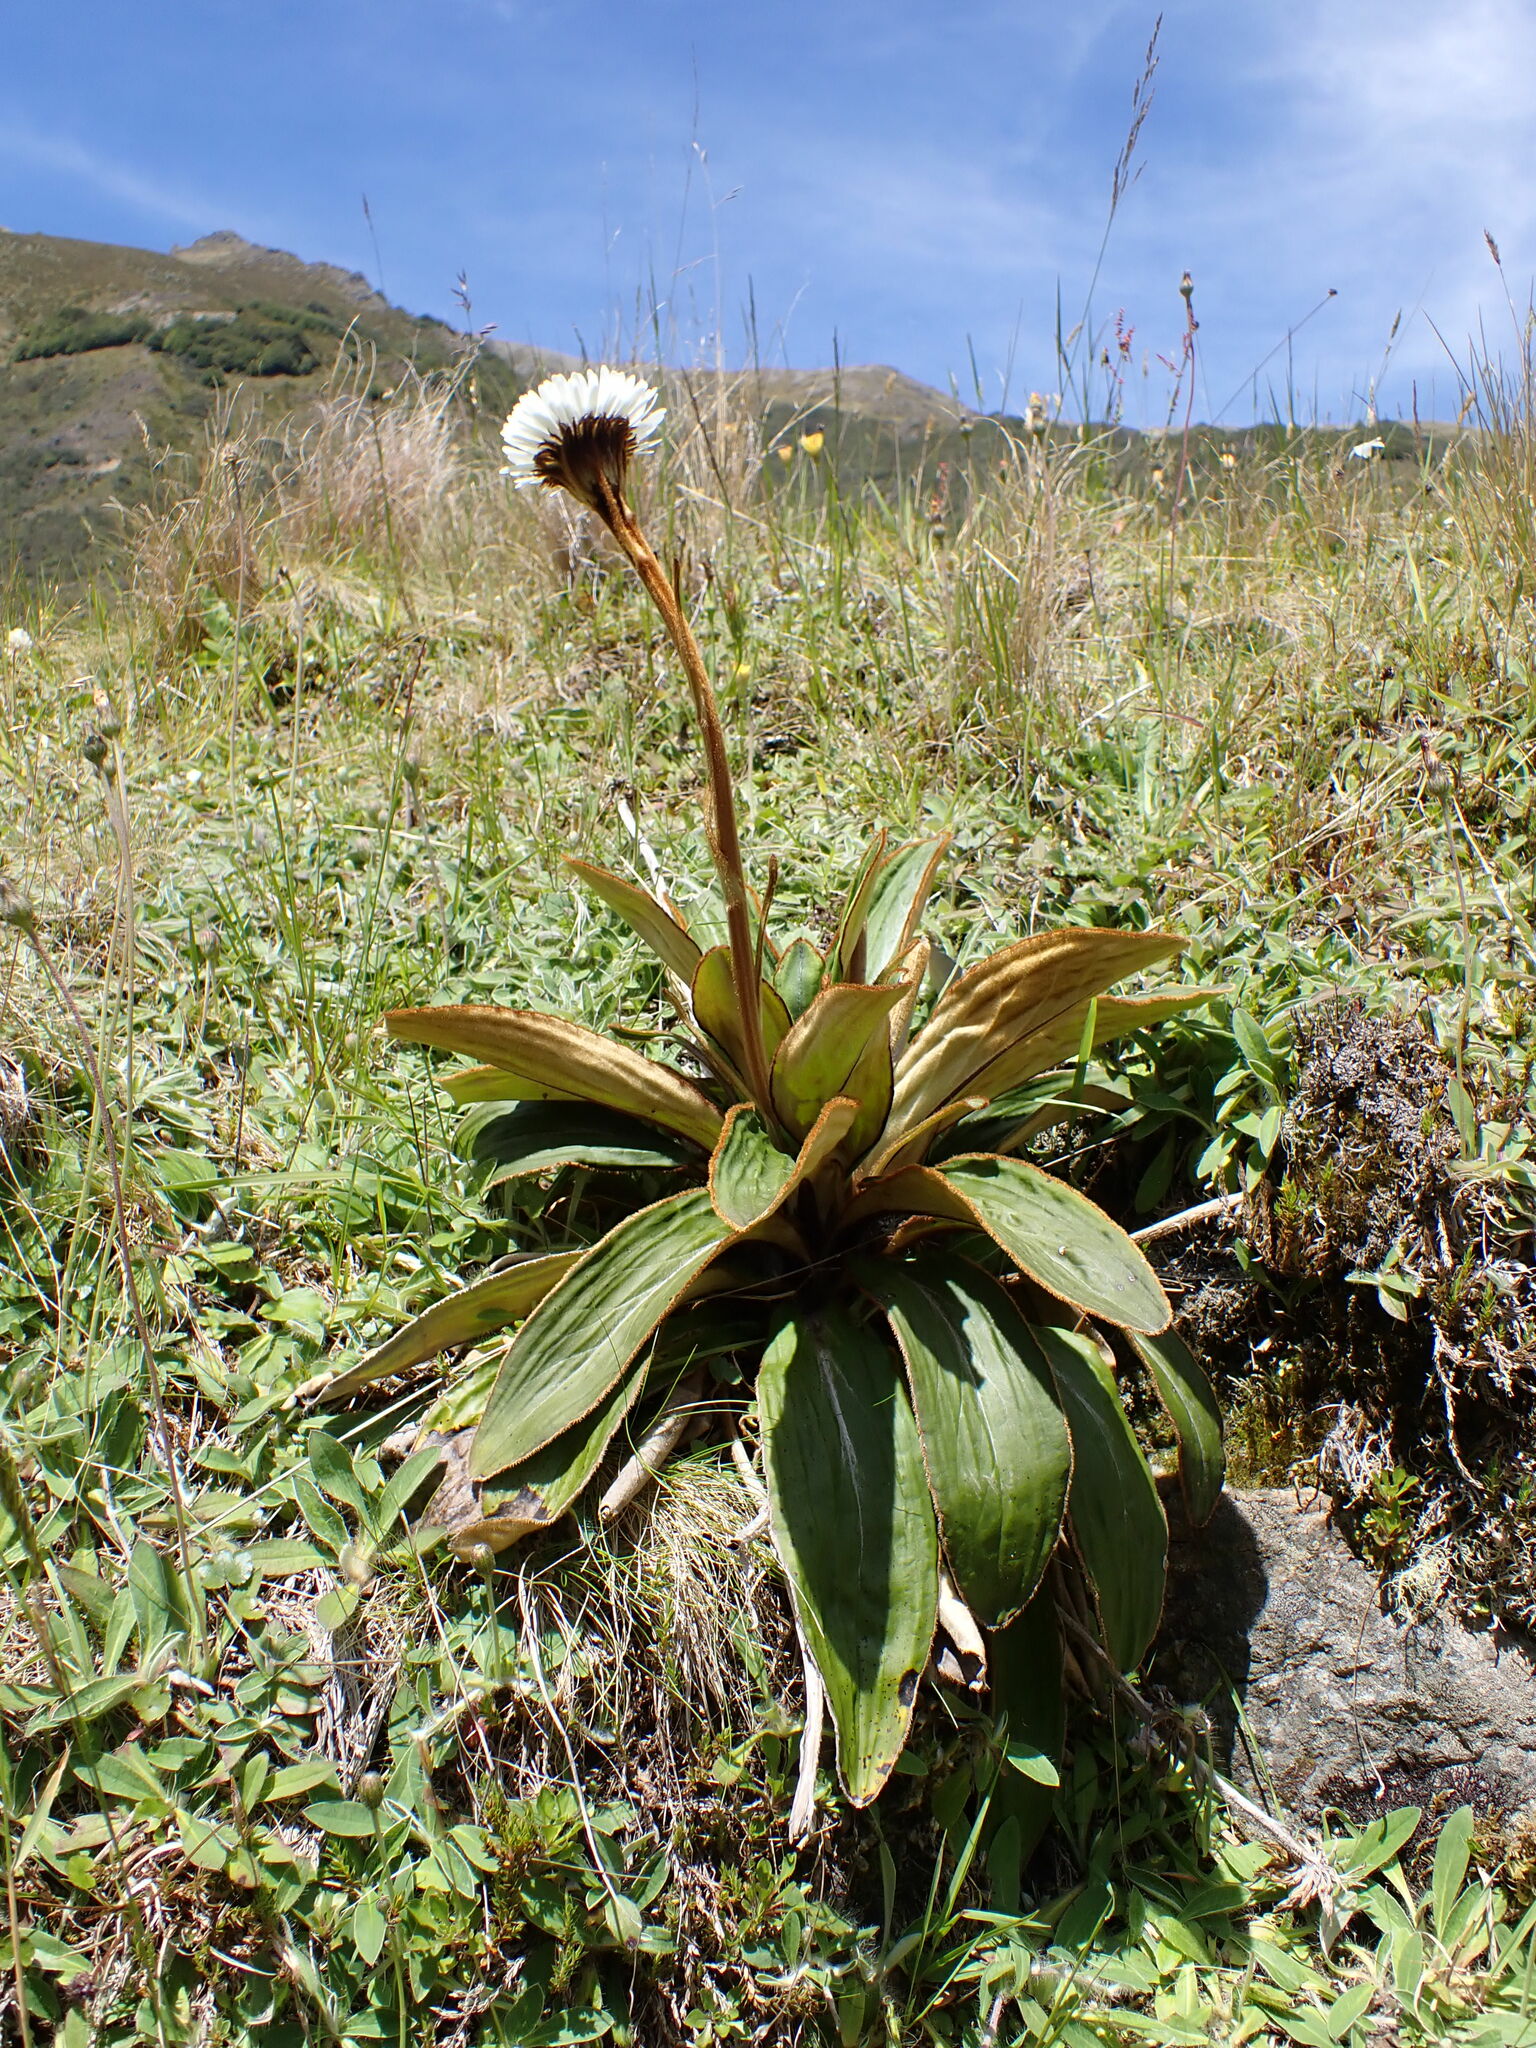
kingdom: Plantae
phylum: Tracheophyta
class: Magnoliopsida
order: Asterales
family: Asteraceae
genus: Celmisia
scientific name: Celmisia traversii
